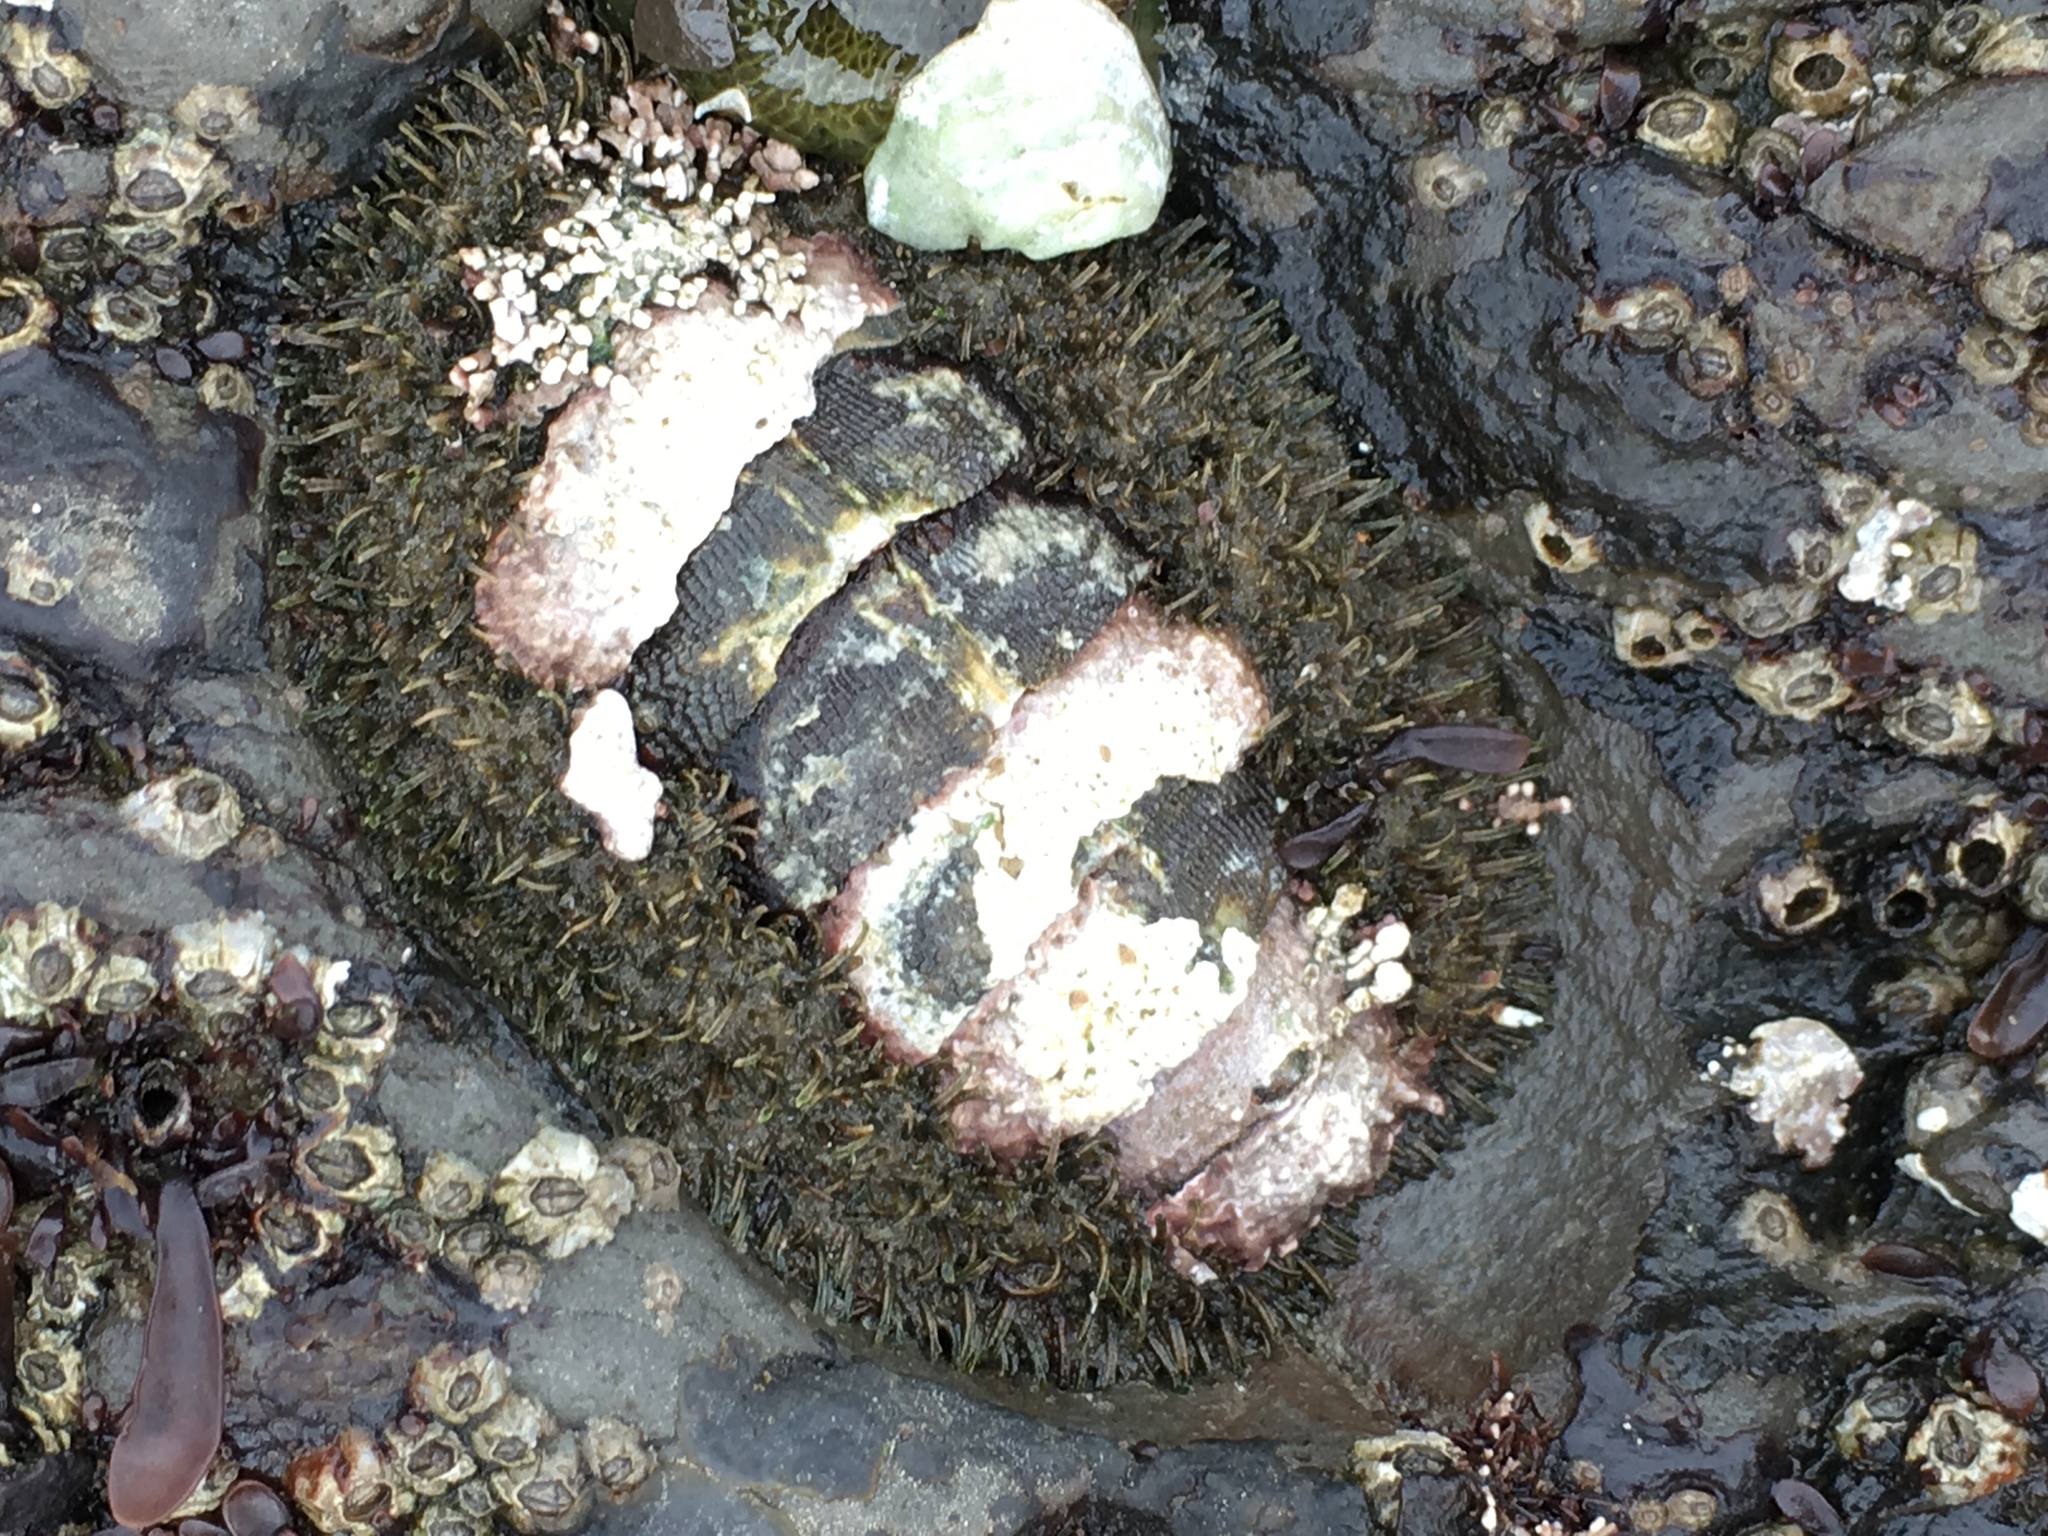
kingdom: Animalia
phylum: Mollusca
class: Polyplacophora
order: Chitonida
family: Mopaliidae
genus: Mopalia
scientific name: Mopalia muscosa
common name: Mossy chiton
